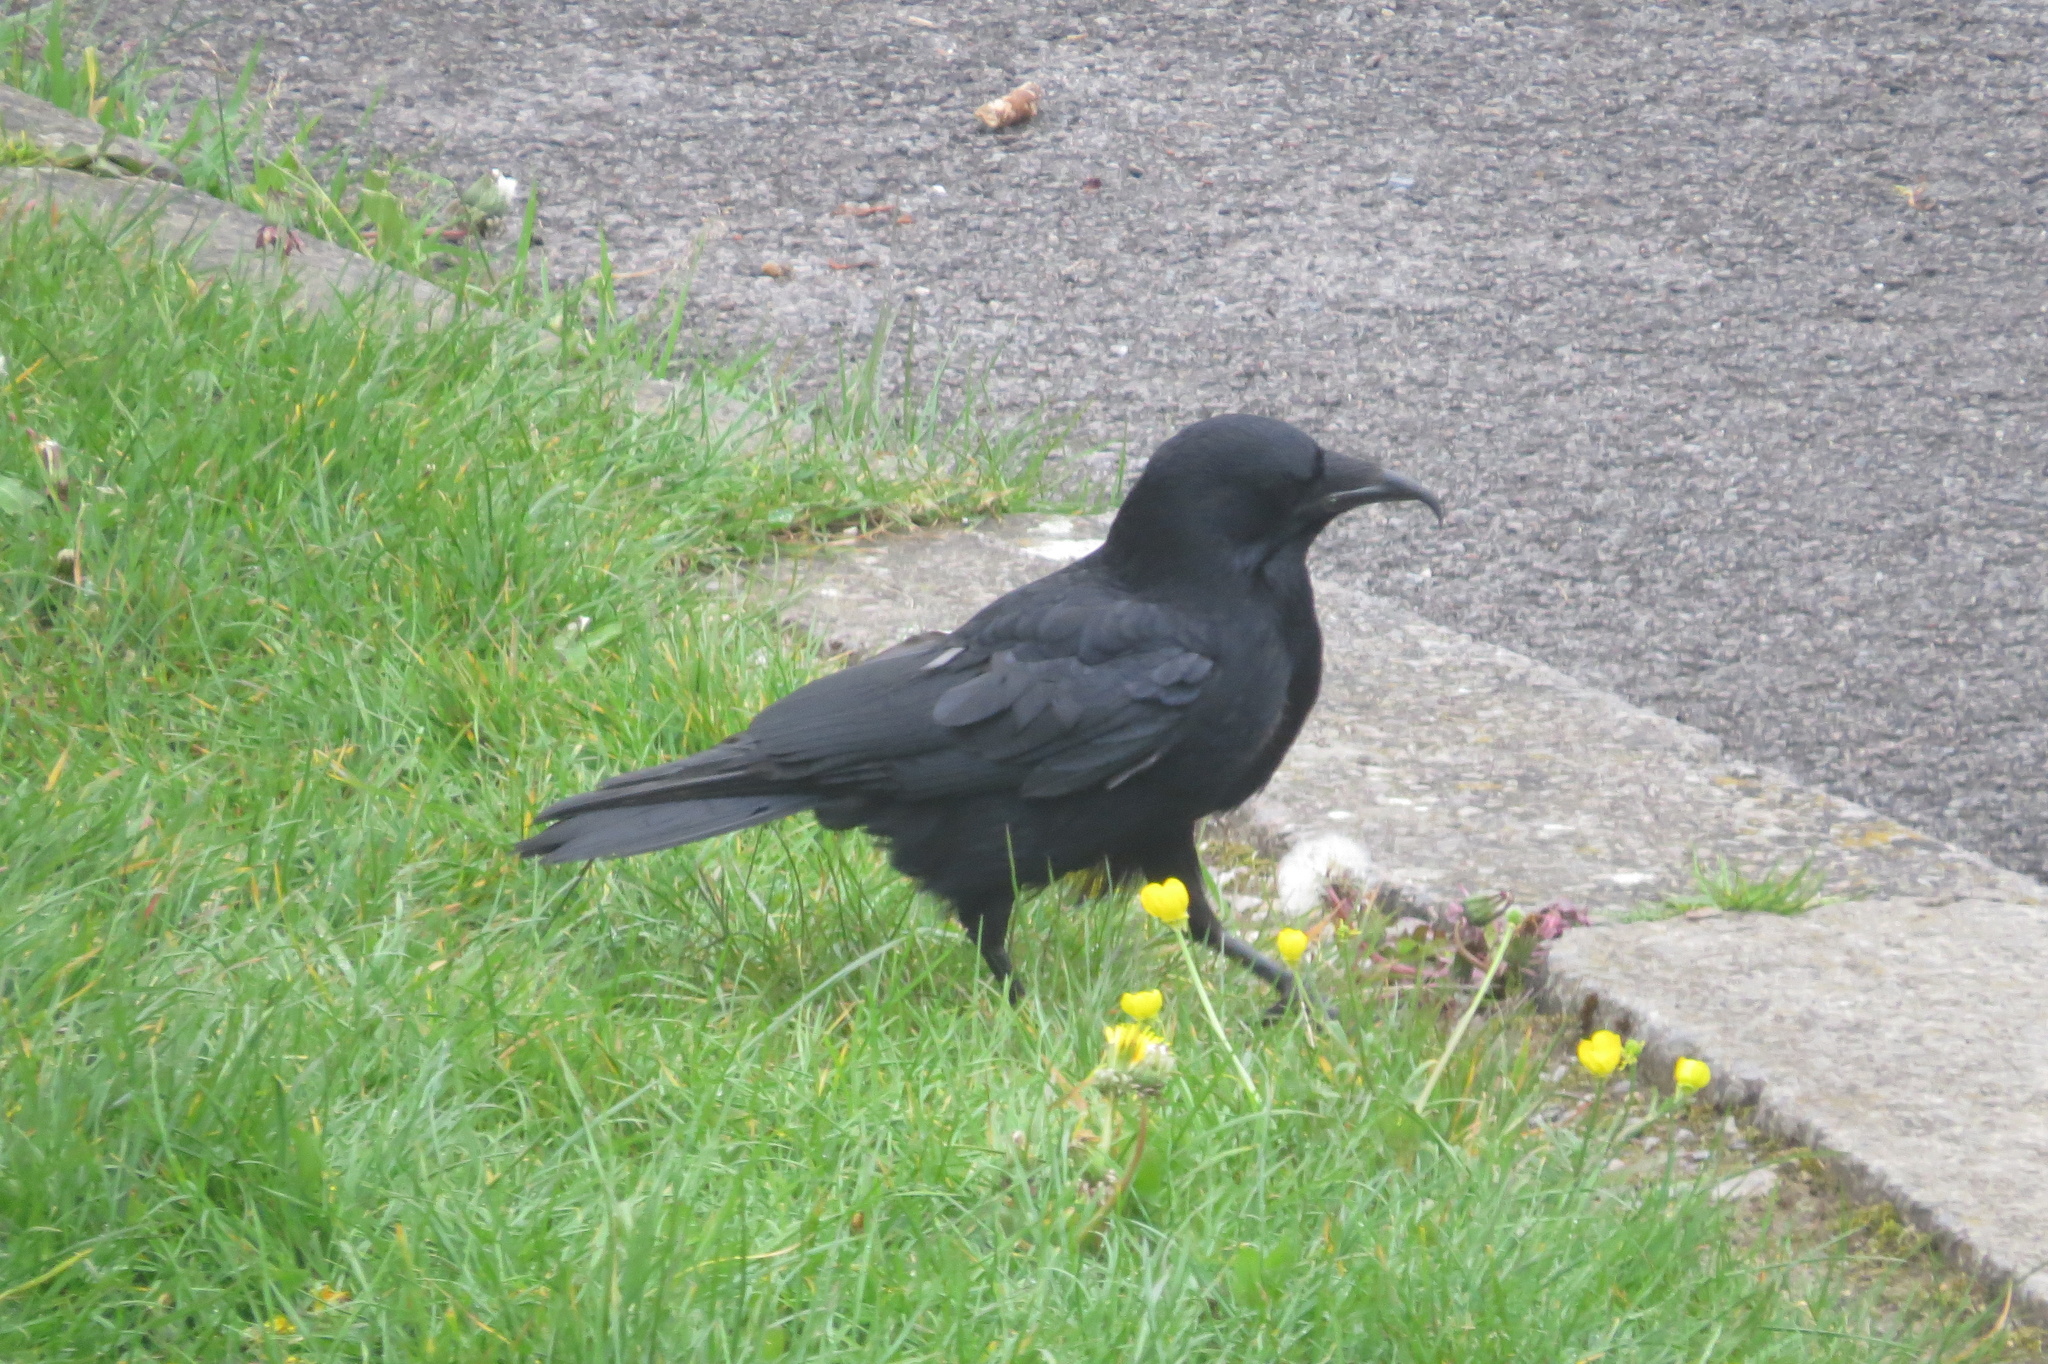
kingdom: Animalia
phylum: Chordata
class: Aves
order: Passeriformes
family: Corvidae
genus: Corvus
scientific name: Corvus corone
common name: Carrion crow
